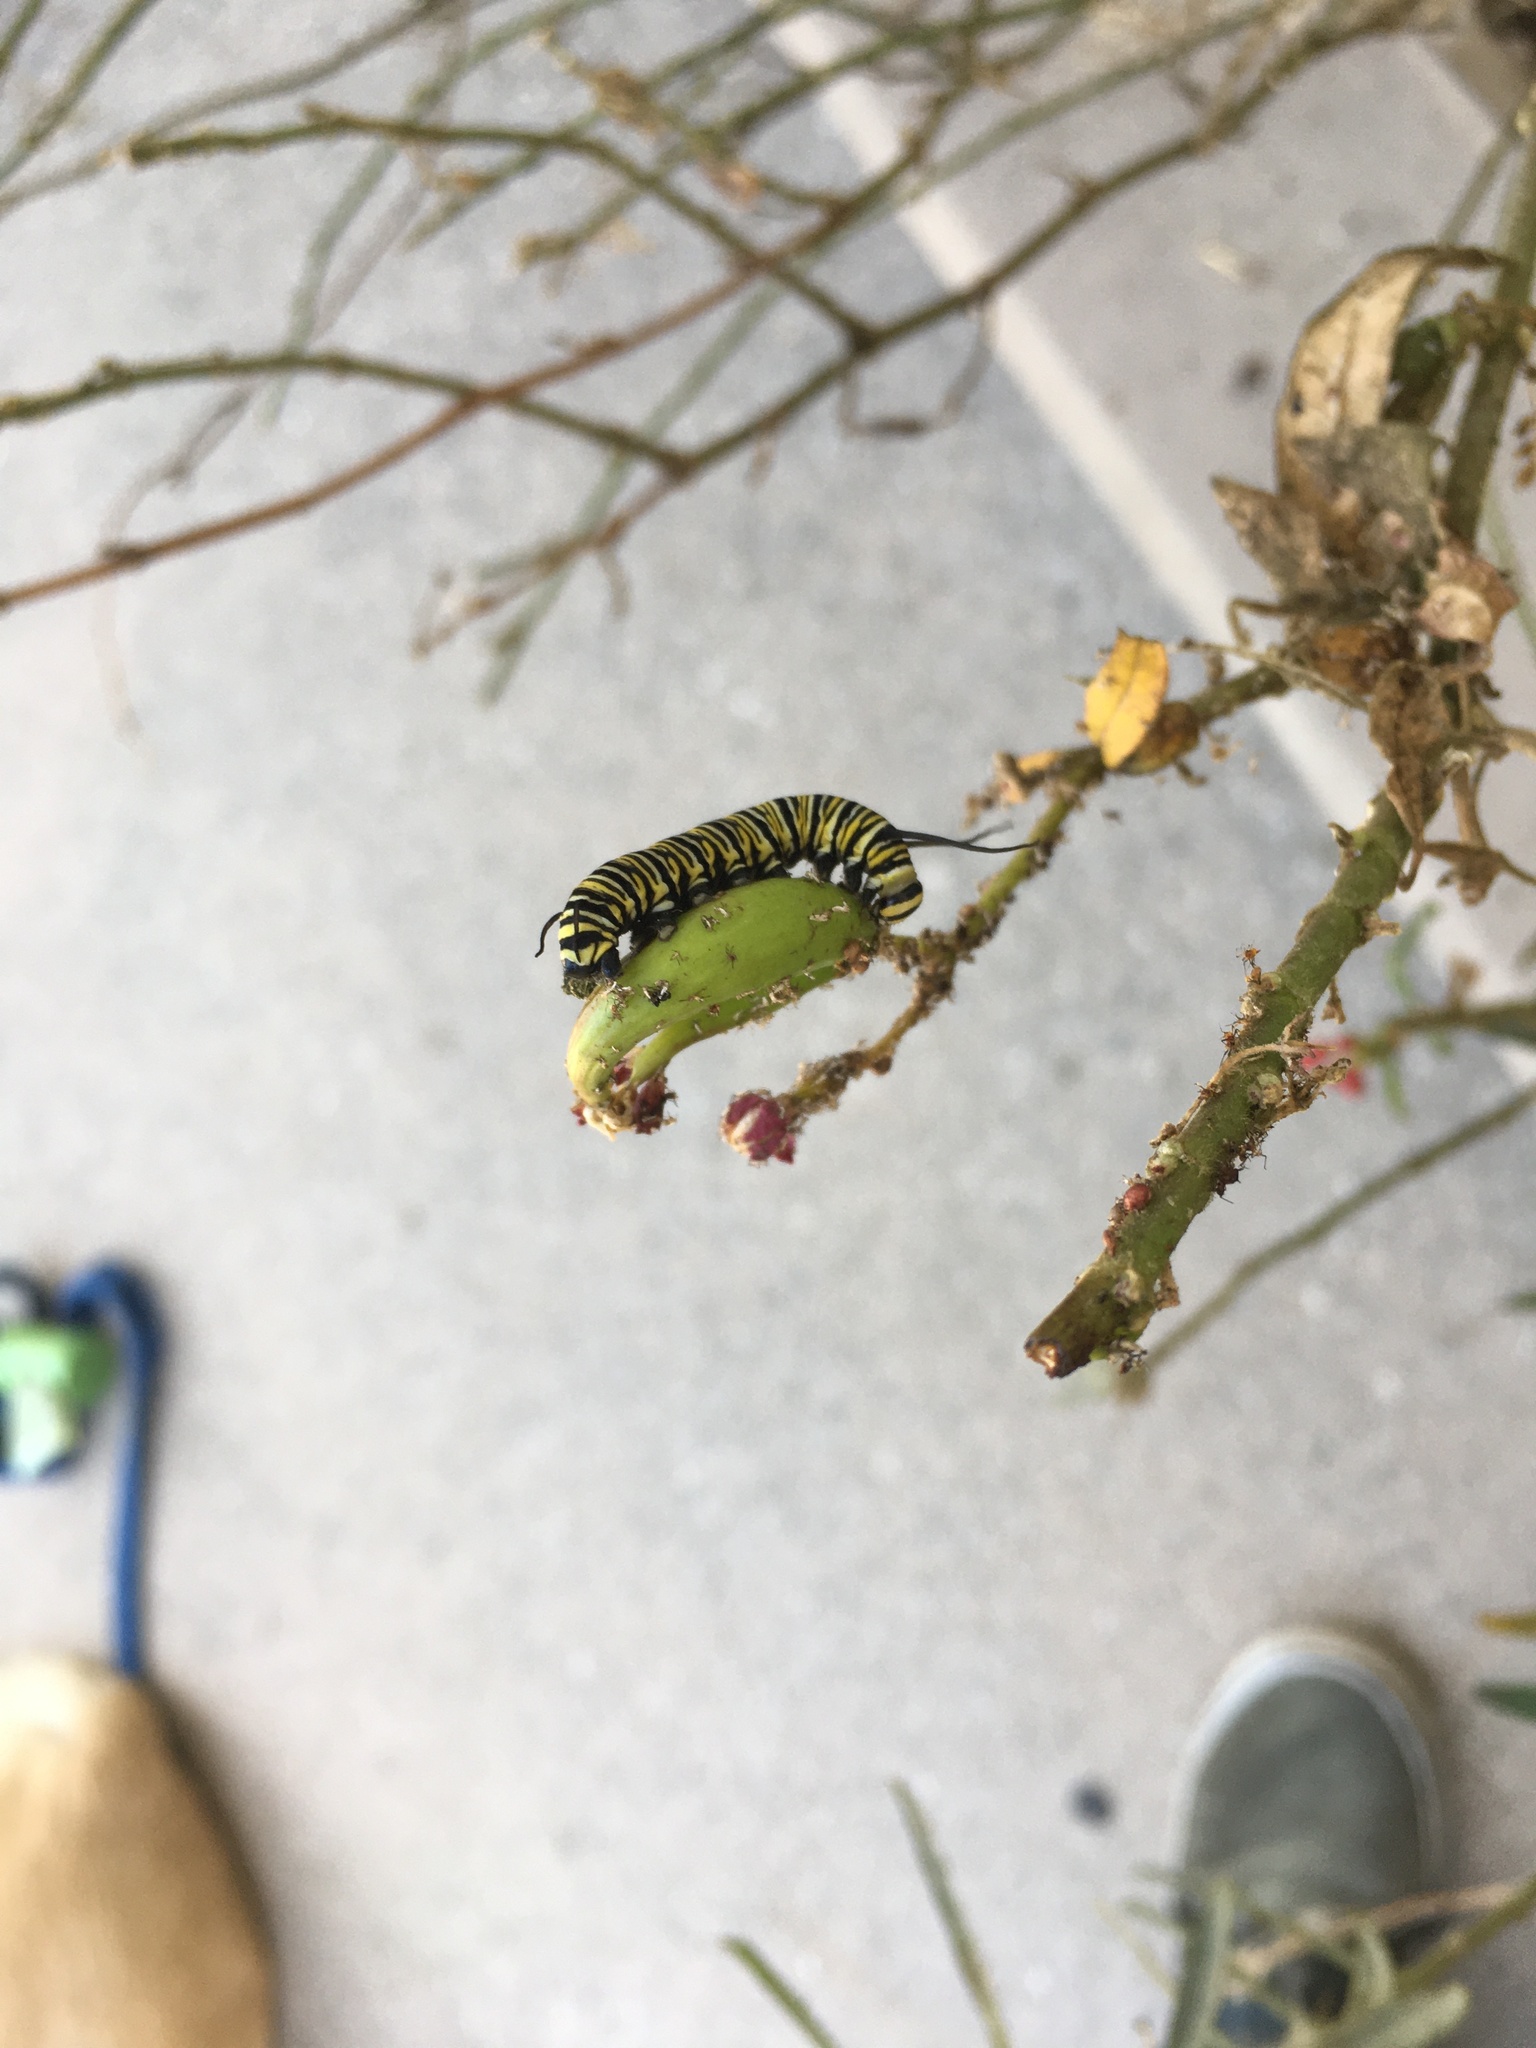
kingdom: Animalia
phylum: Arthropoda
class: Insecta
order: Lepidoptera
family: Nymphalidae
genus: Danaus
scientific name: Danaus plexippus
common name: Monarch
